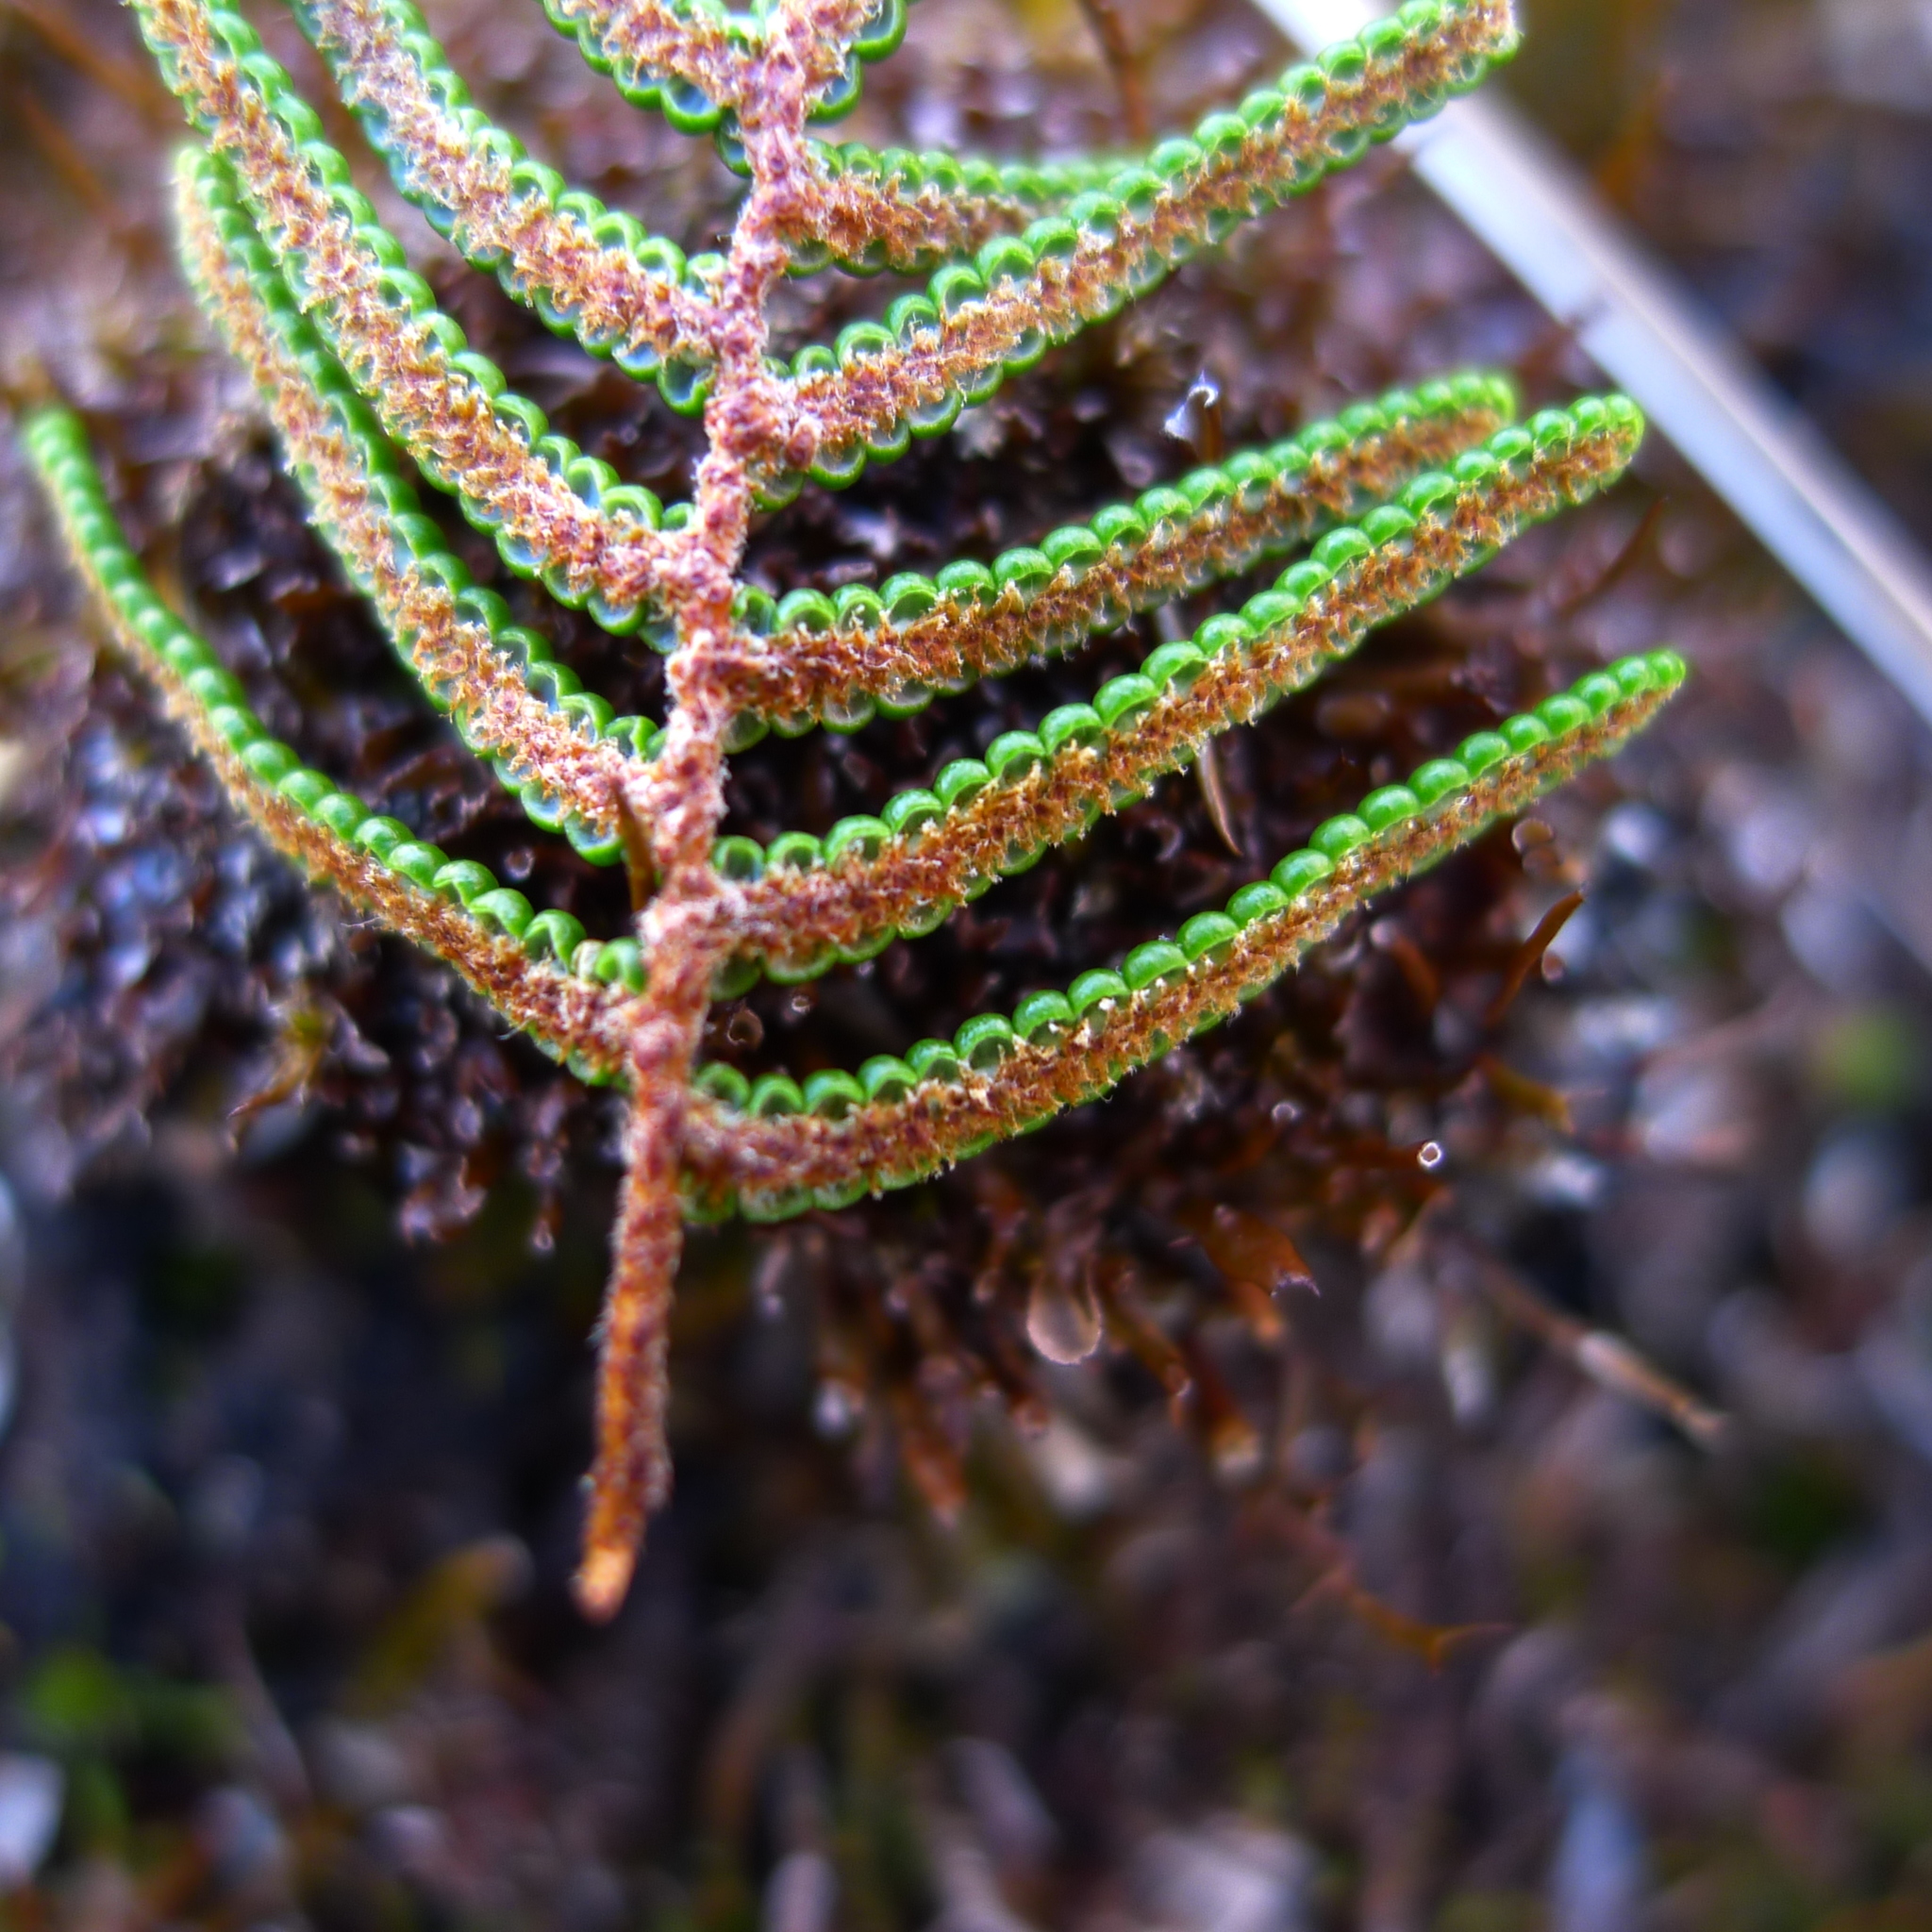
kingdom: Plantae
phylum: Tracheophyta
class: Polypodiopsida
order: Gleicheniales
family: Gleicheniaceae
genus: Gleichenia
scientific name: Gleichenia alpina
